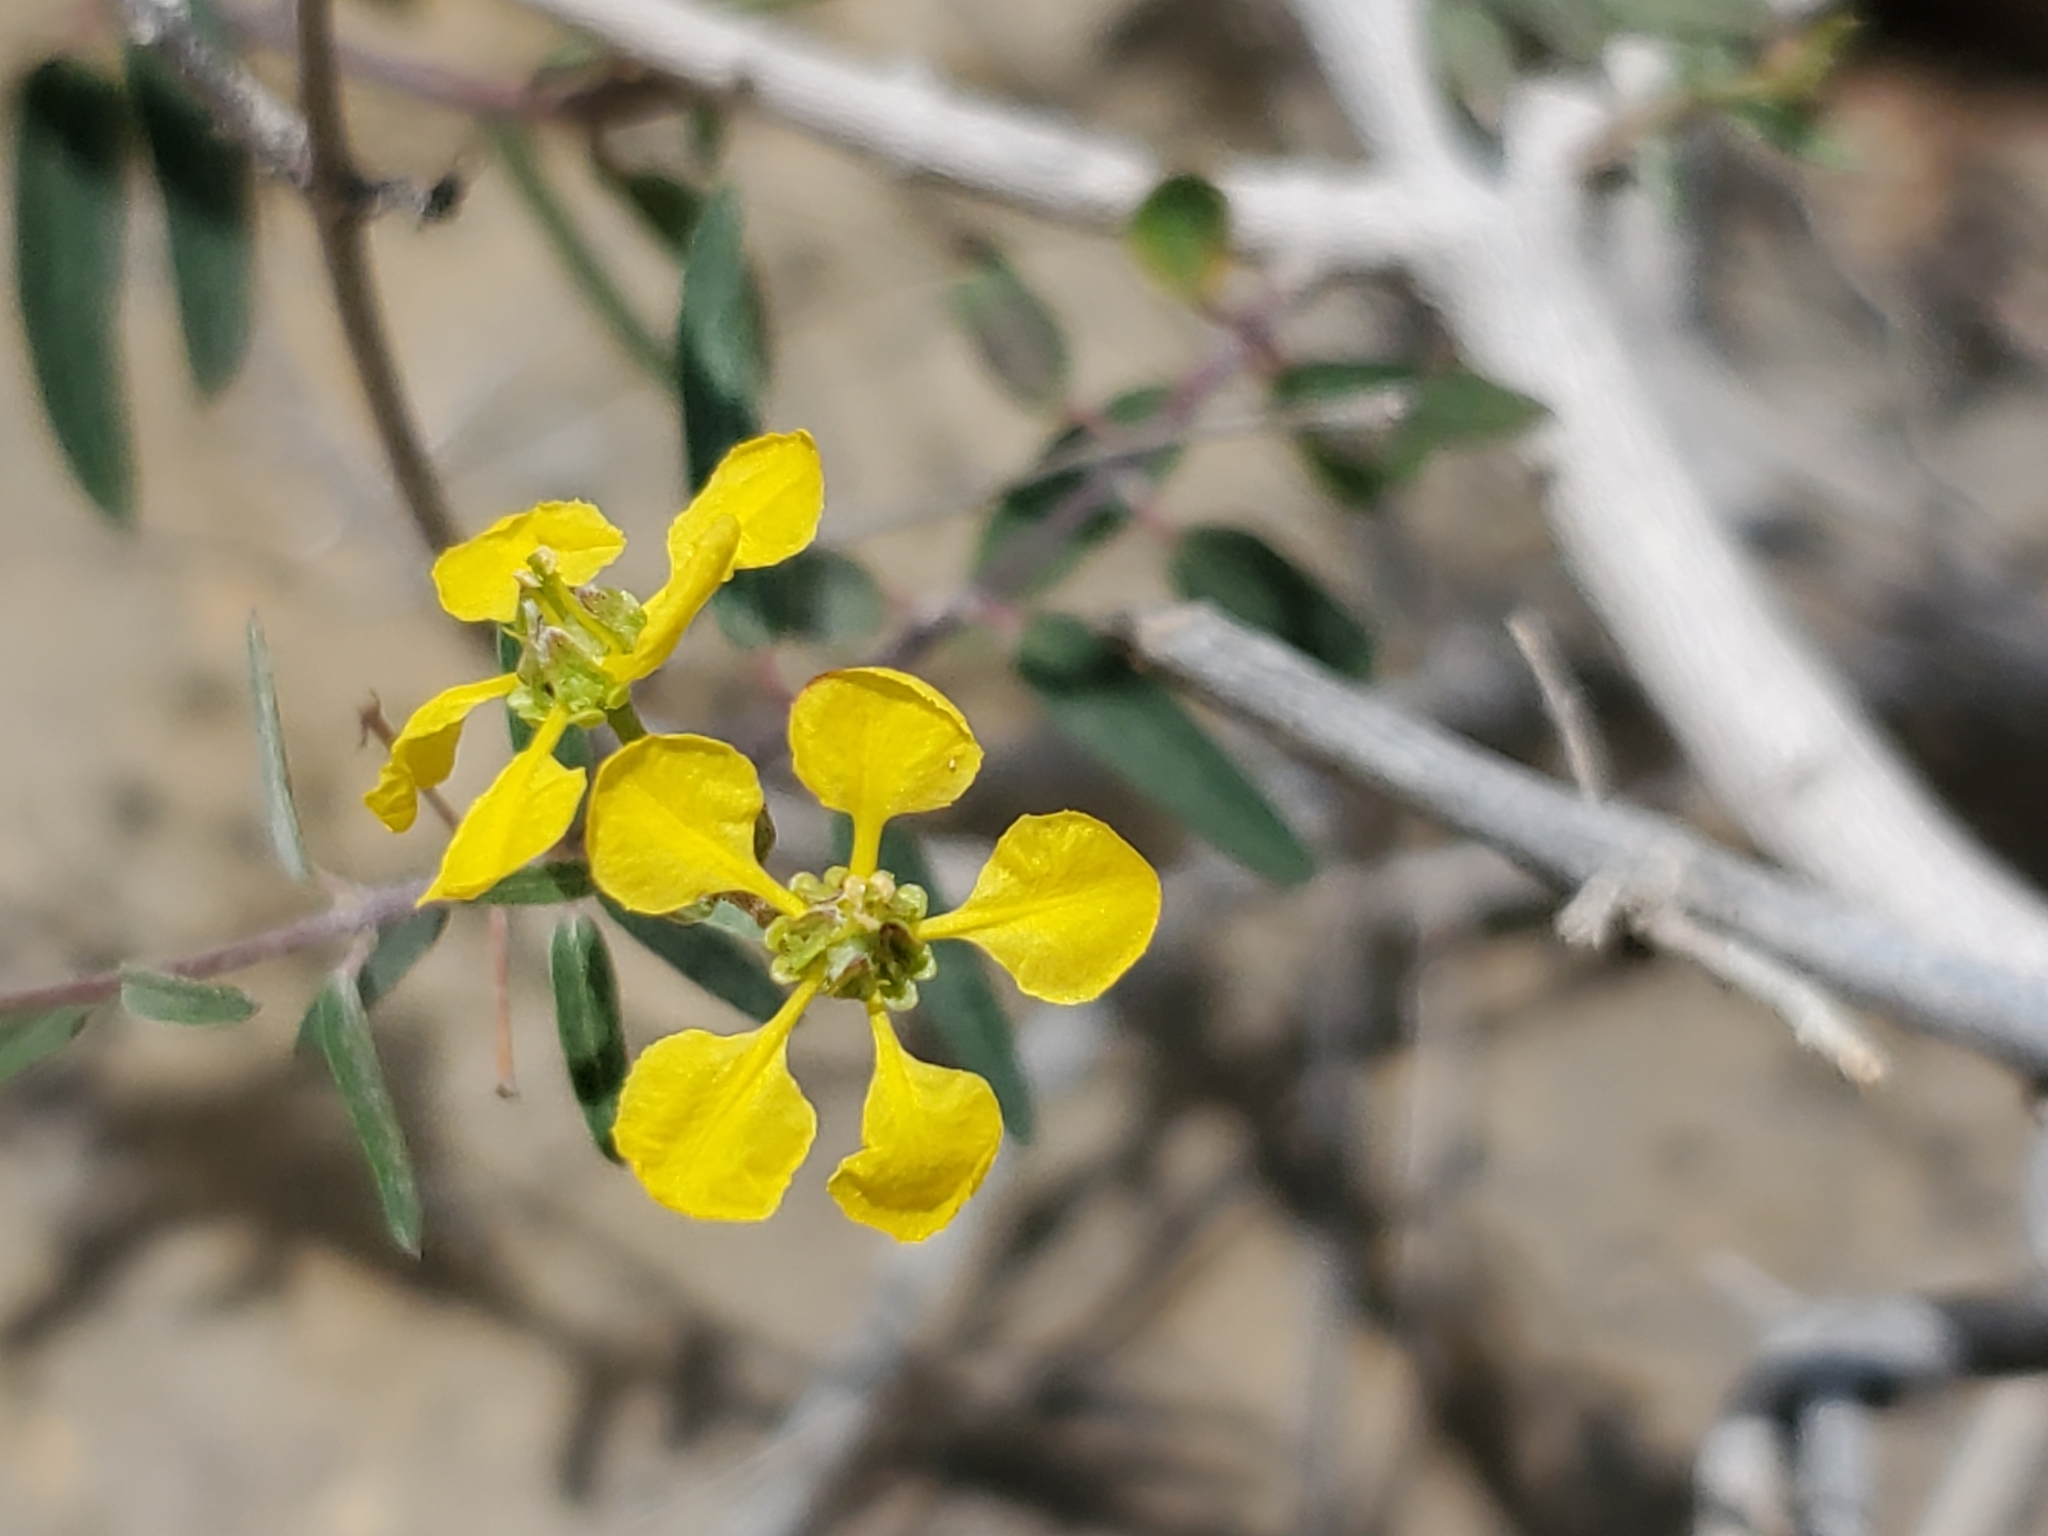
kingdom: Plantae
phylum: Tracheophyta
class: Magnoliopsida
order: Malpighiales
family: Malpighiaceae
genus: Cottsia
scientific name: Cottsia gracilis
